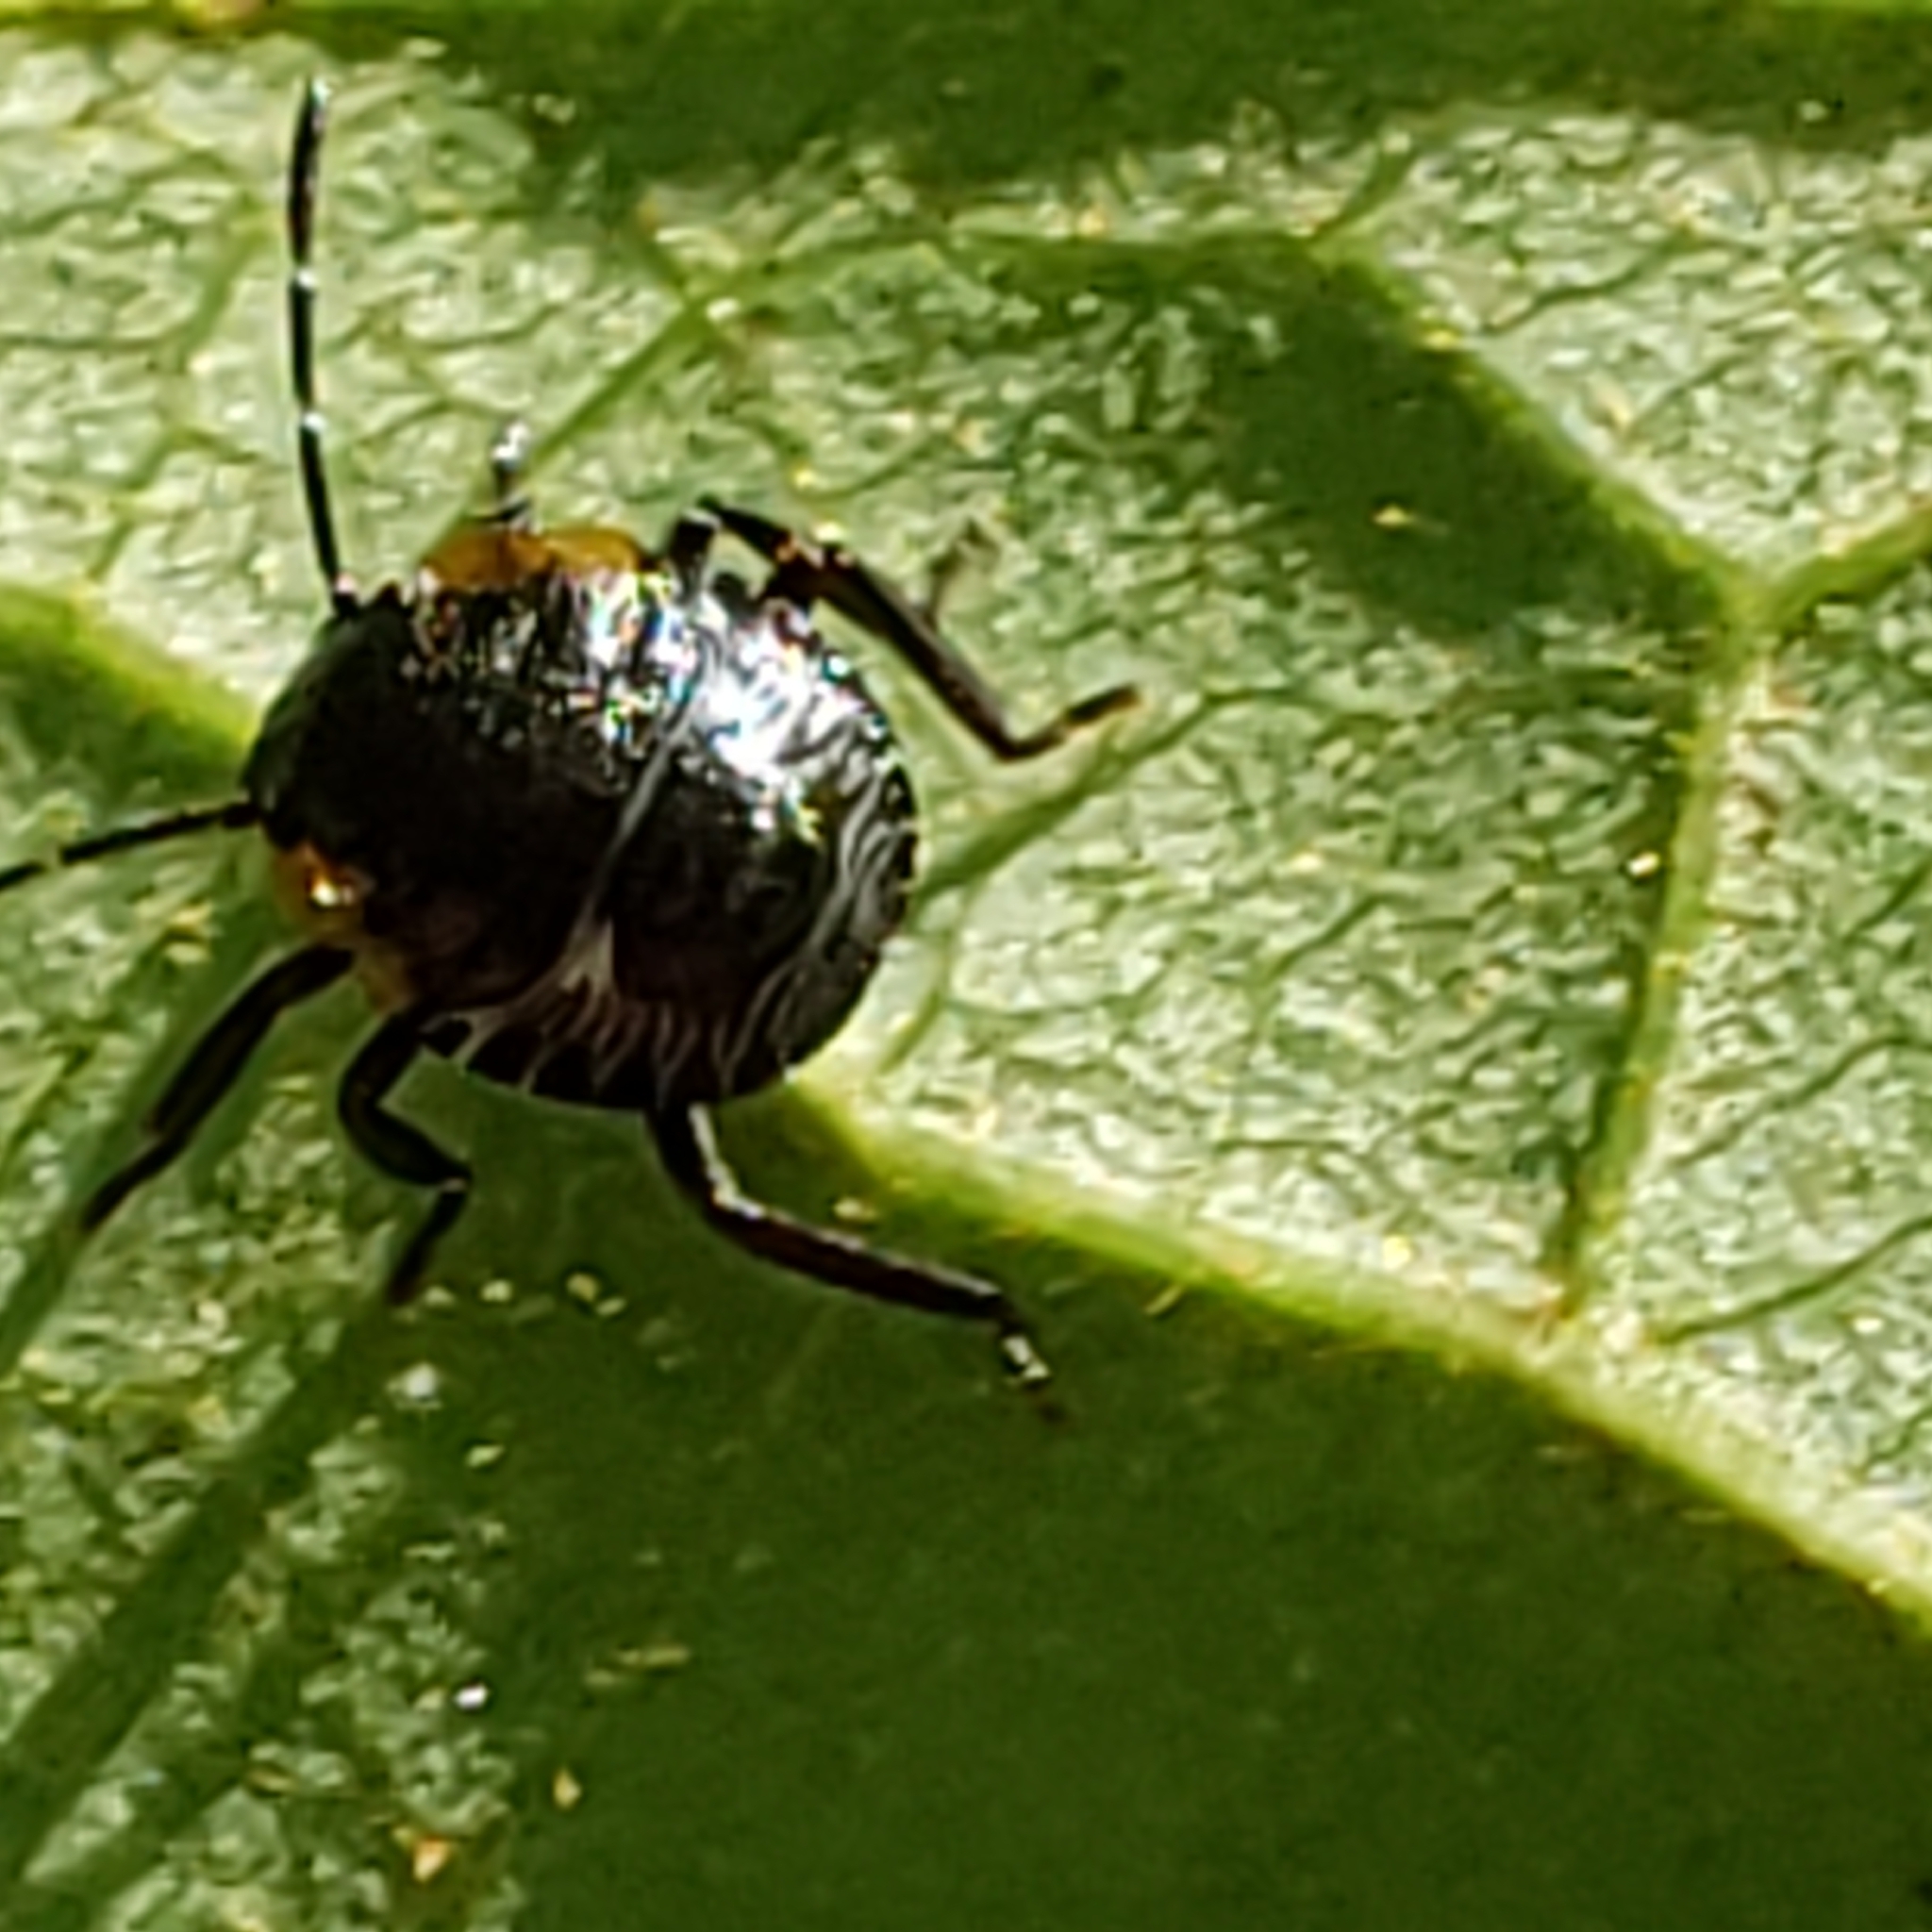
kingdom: Animalia
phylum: Arthropoda
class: Insecta
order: Hemiptera
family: Pentatomidae
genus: Chinavia
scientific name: Chinavia hilaris
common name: Green stink bug
